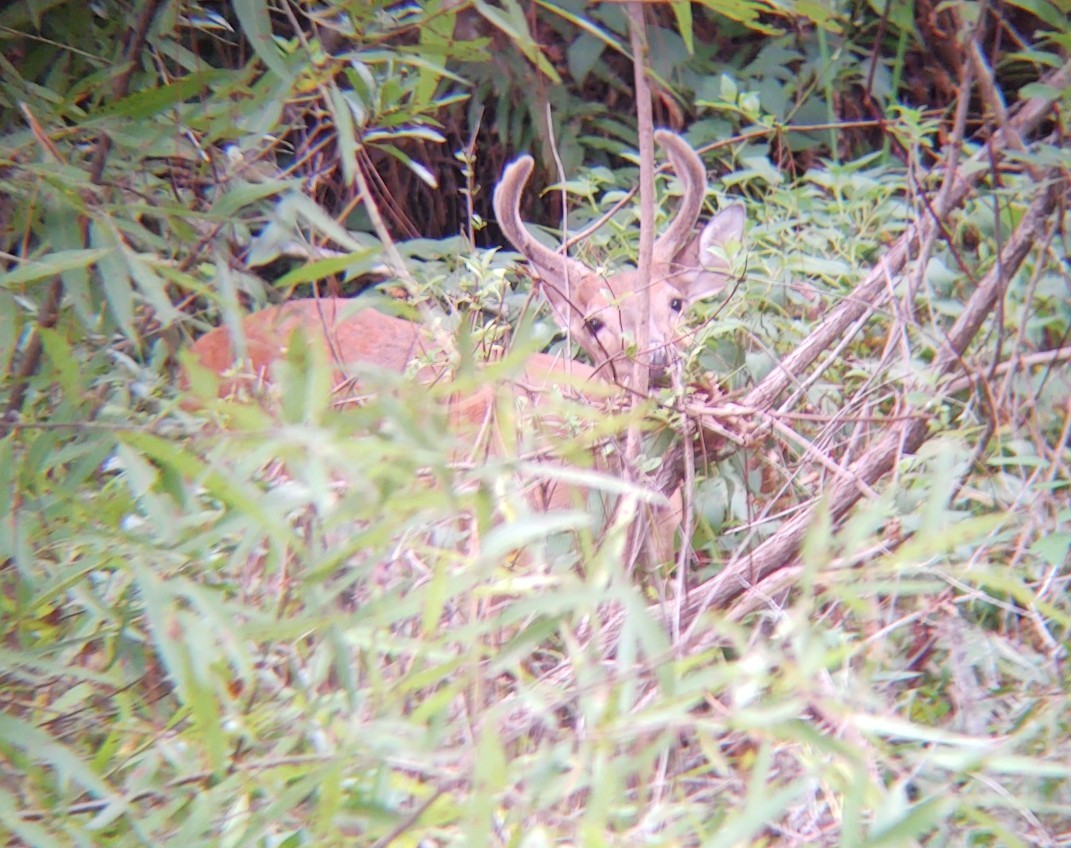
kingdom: Animalia
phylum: Chordata
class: Mammalia
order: Artiodactyla
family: Cervidae
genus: Odocoileus
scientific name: Odocoileus virginianus
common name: White-tailed deer
